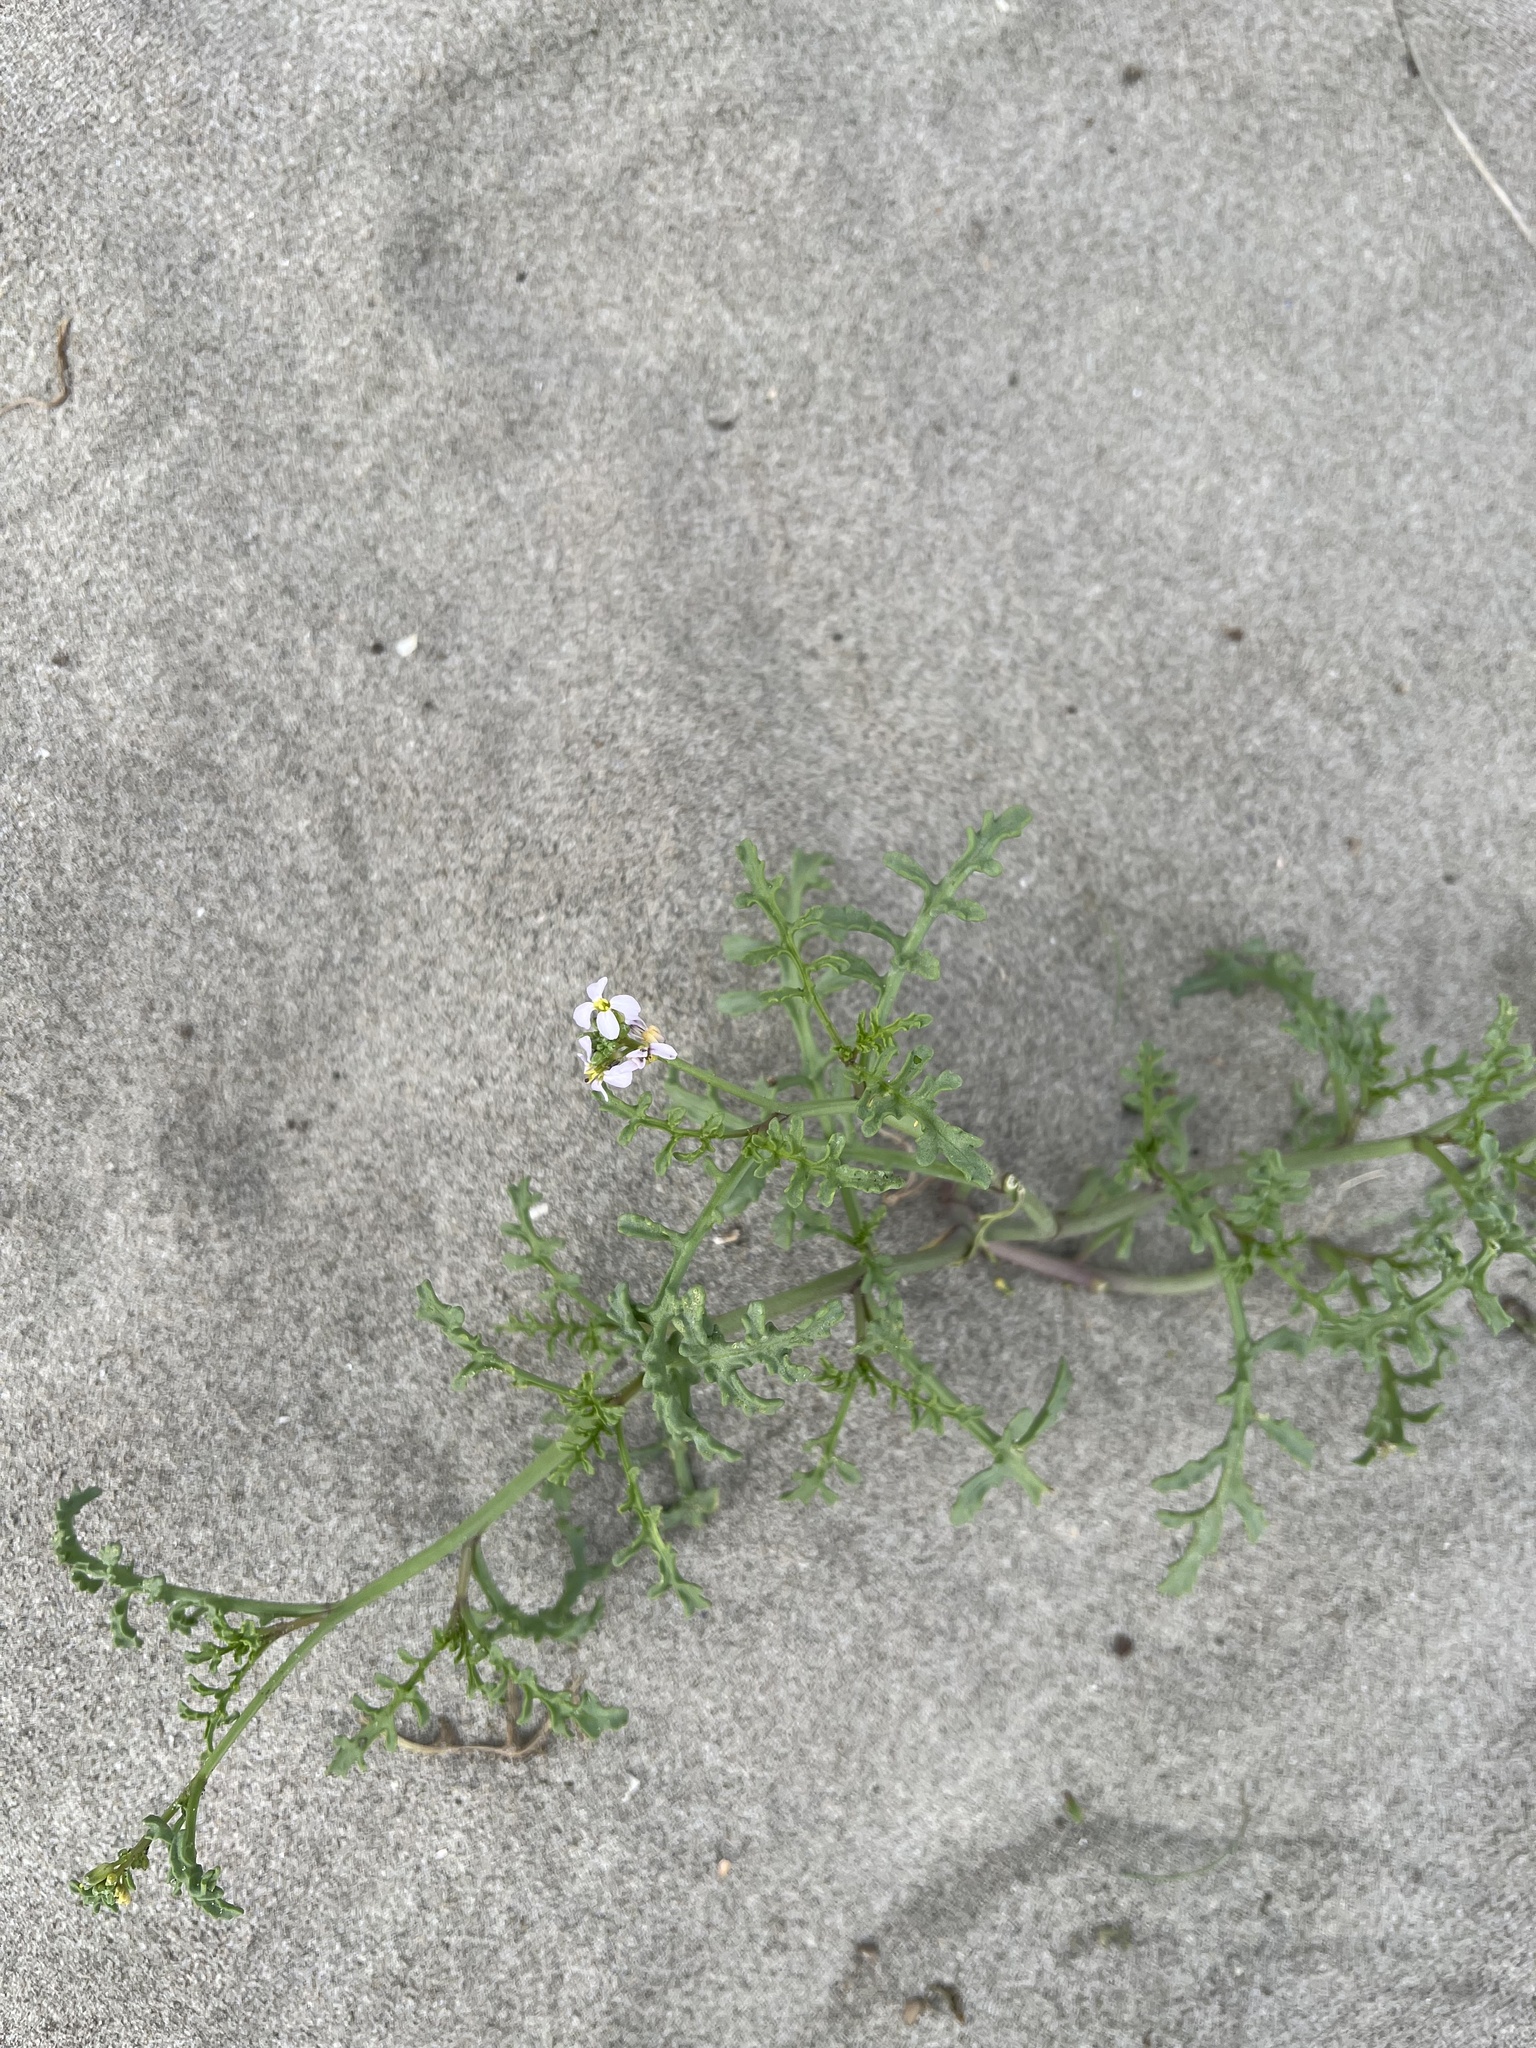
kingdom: Plantae
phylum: Tracheophyta
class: Magnoliopsida
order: Brassicales
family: Brassicaceae
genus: Cakile
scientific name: Cakile maritima
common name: Sea rocket
